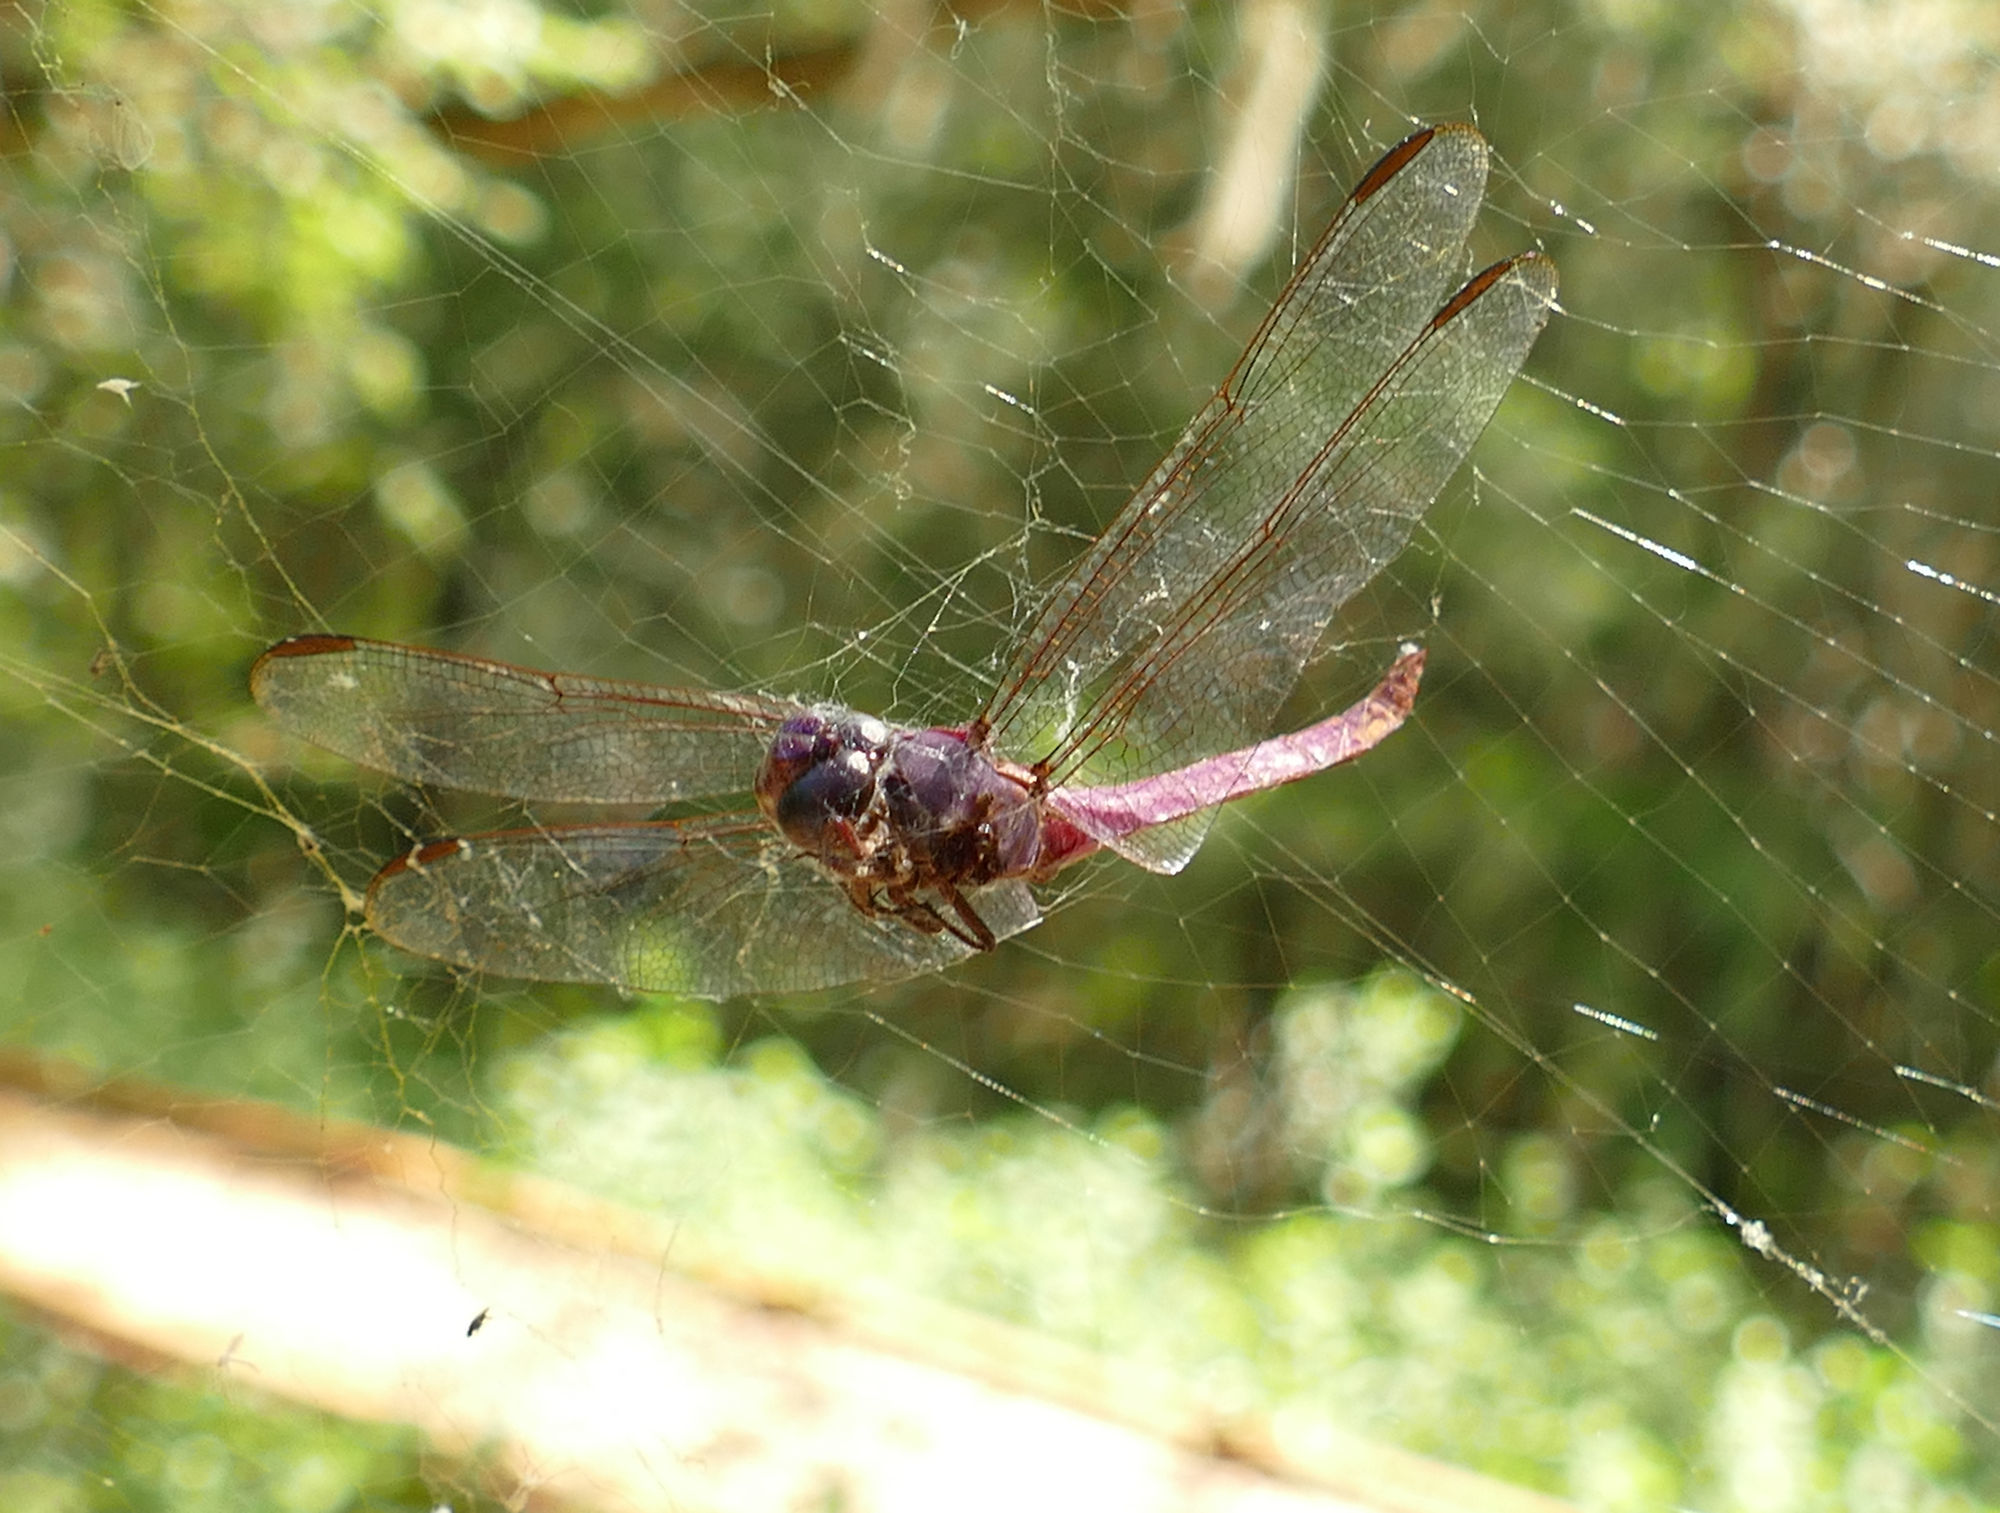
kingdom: Animalia
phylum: Arthropoda
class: Insecta
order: Odonata
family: Libellulidae
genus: Orthemis
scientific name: Orthemis ferruginea
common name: Roseate skimmer
